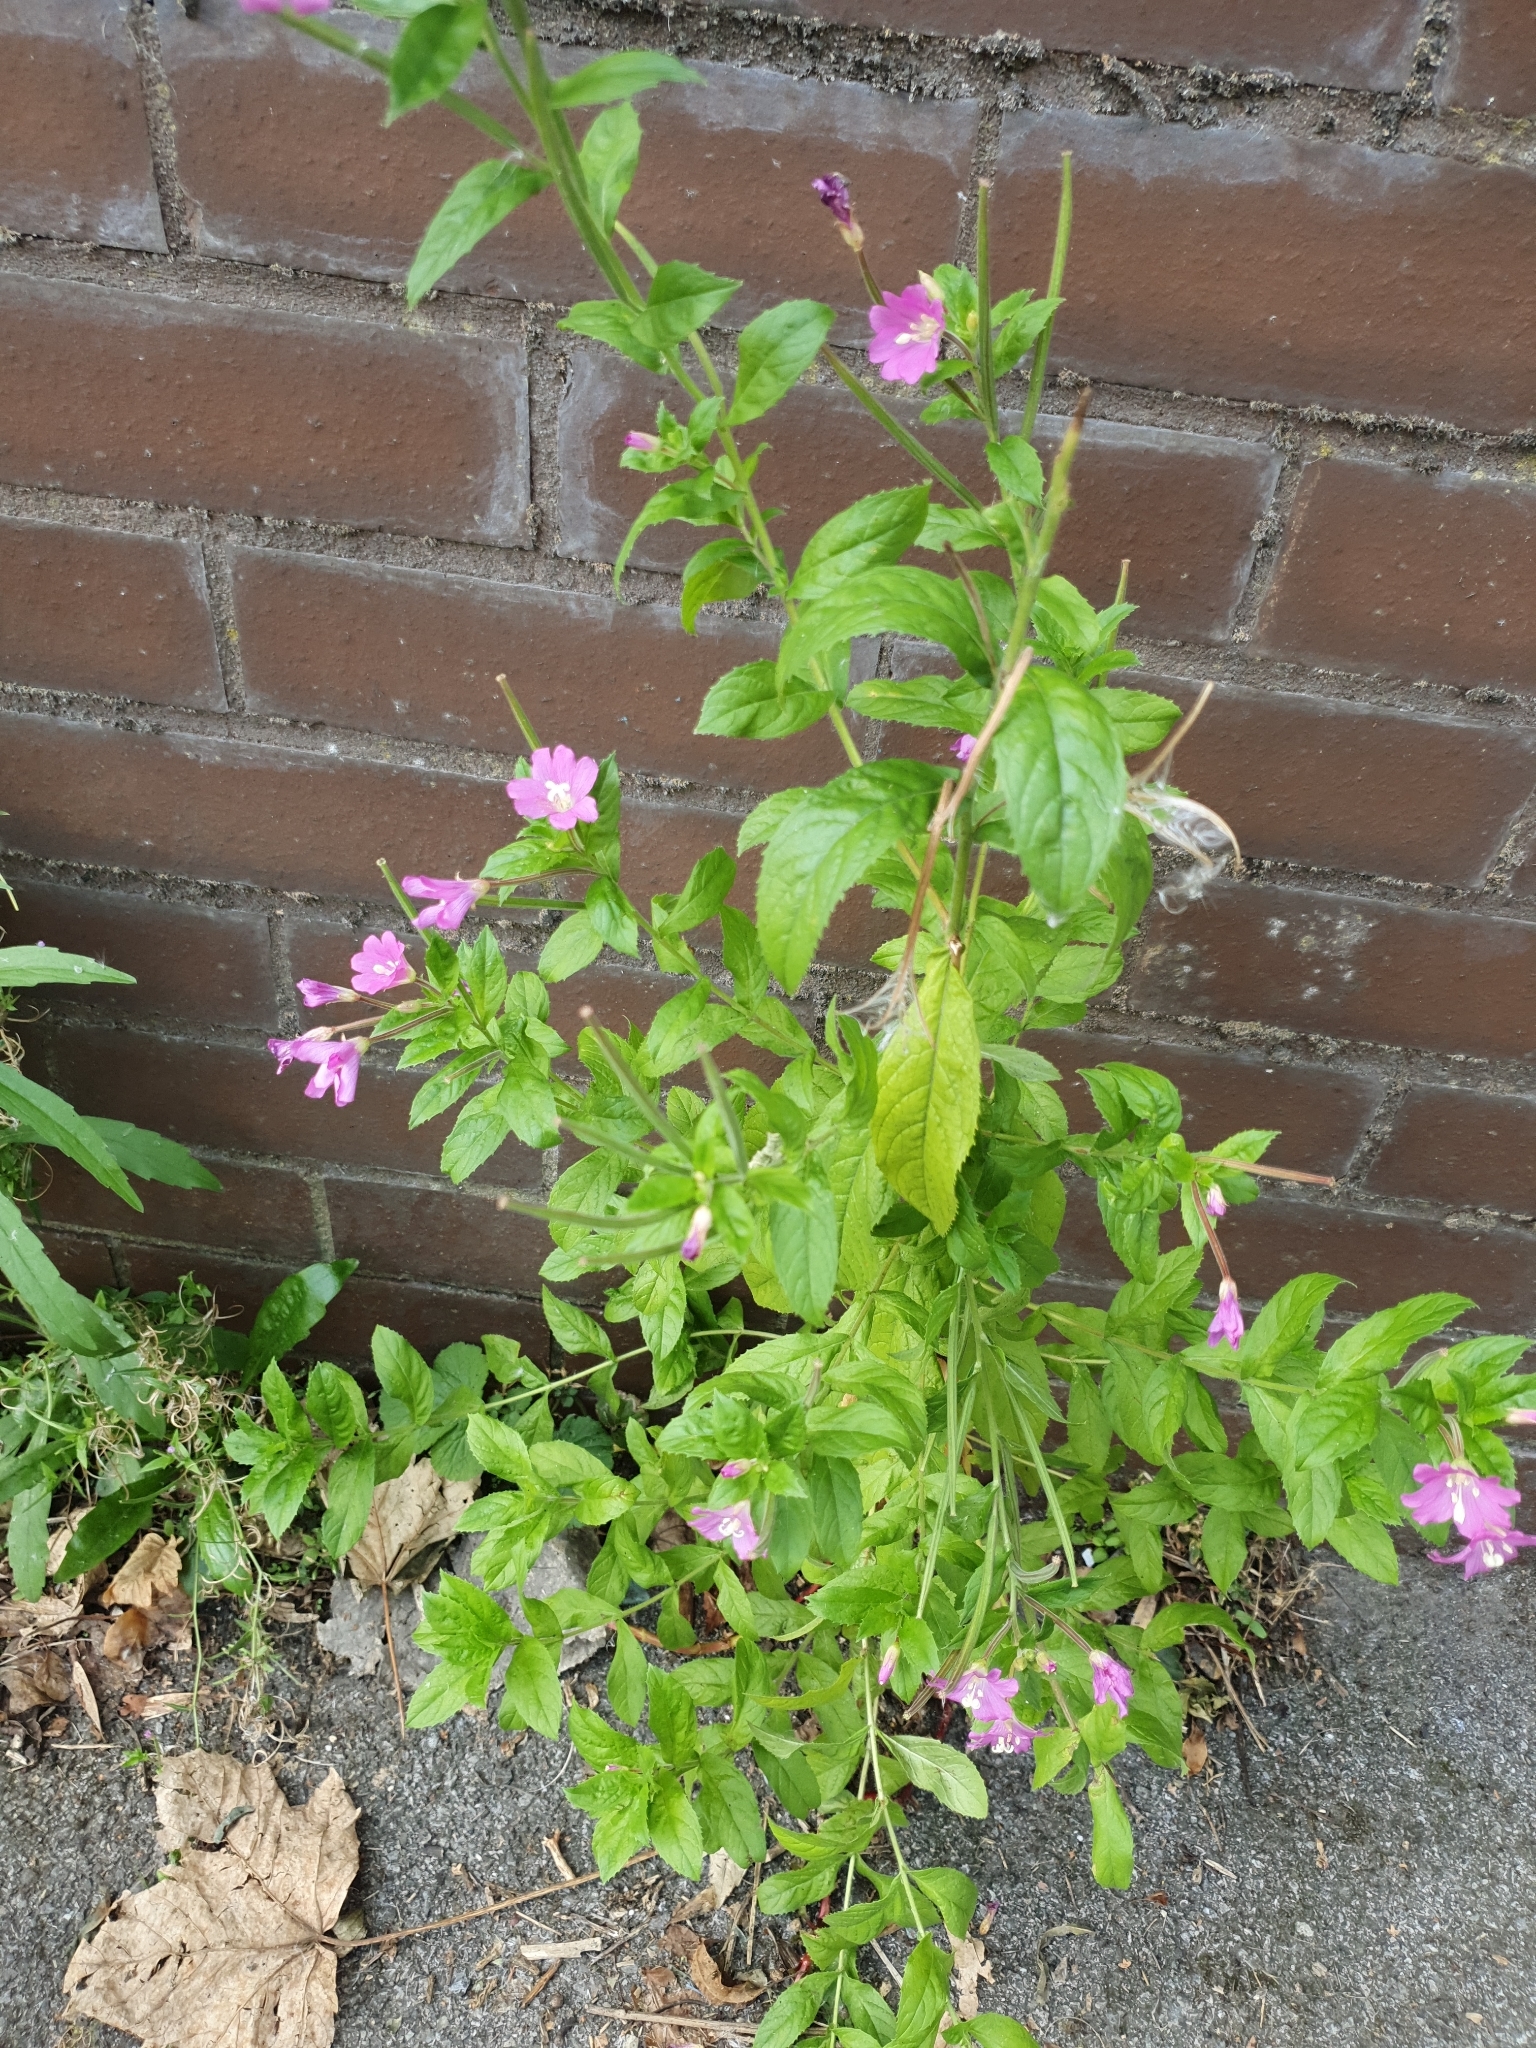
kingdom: Plantae
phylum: Tracheophyta
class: Magnoliopsida
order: Myrtales
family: Onagraceae
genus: Epilobium
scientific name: Epilobium hirsutum
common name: Great willowherb
